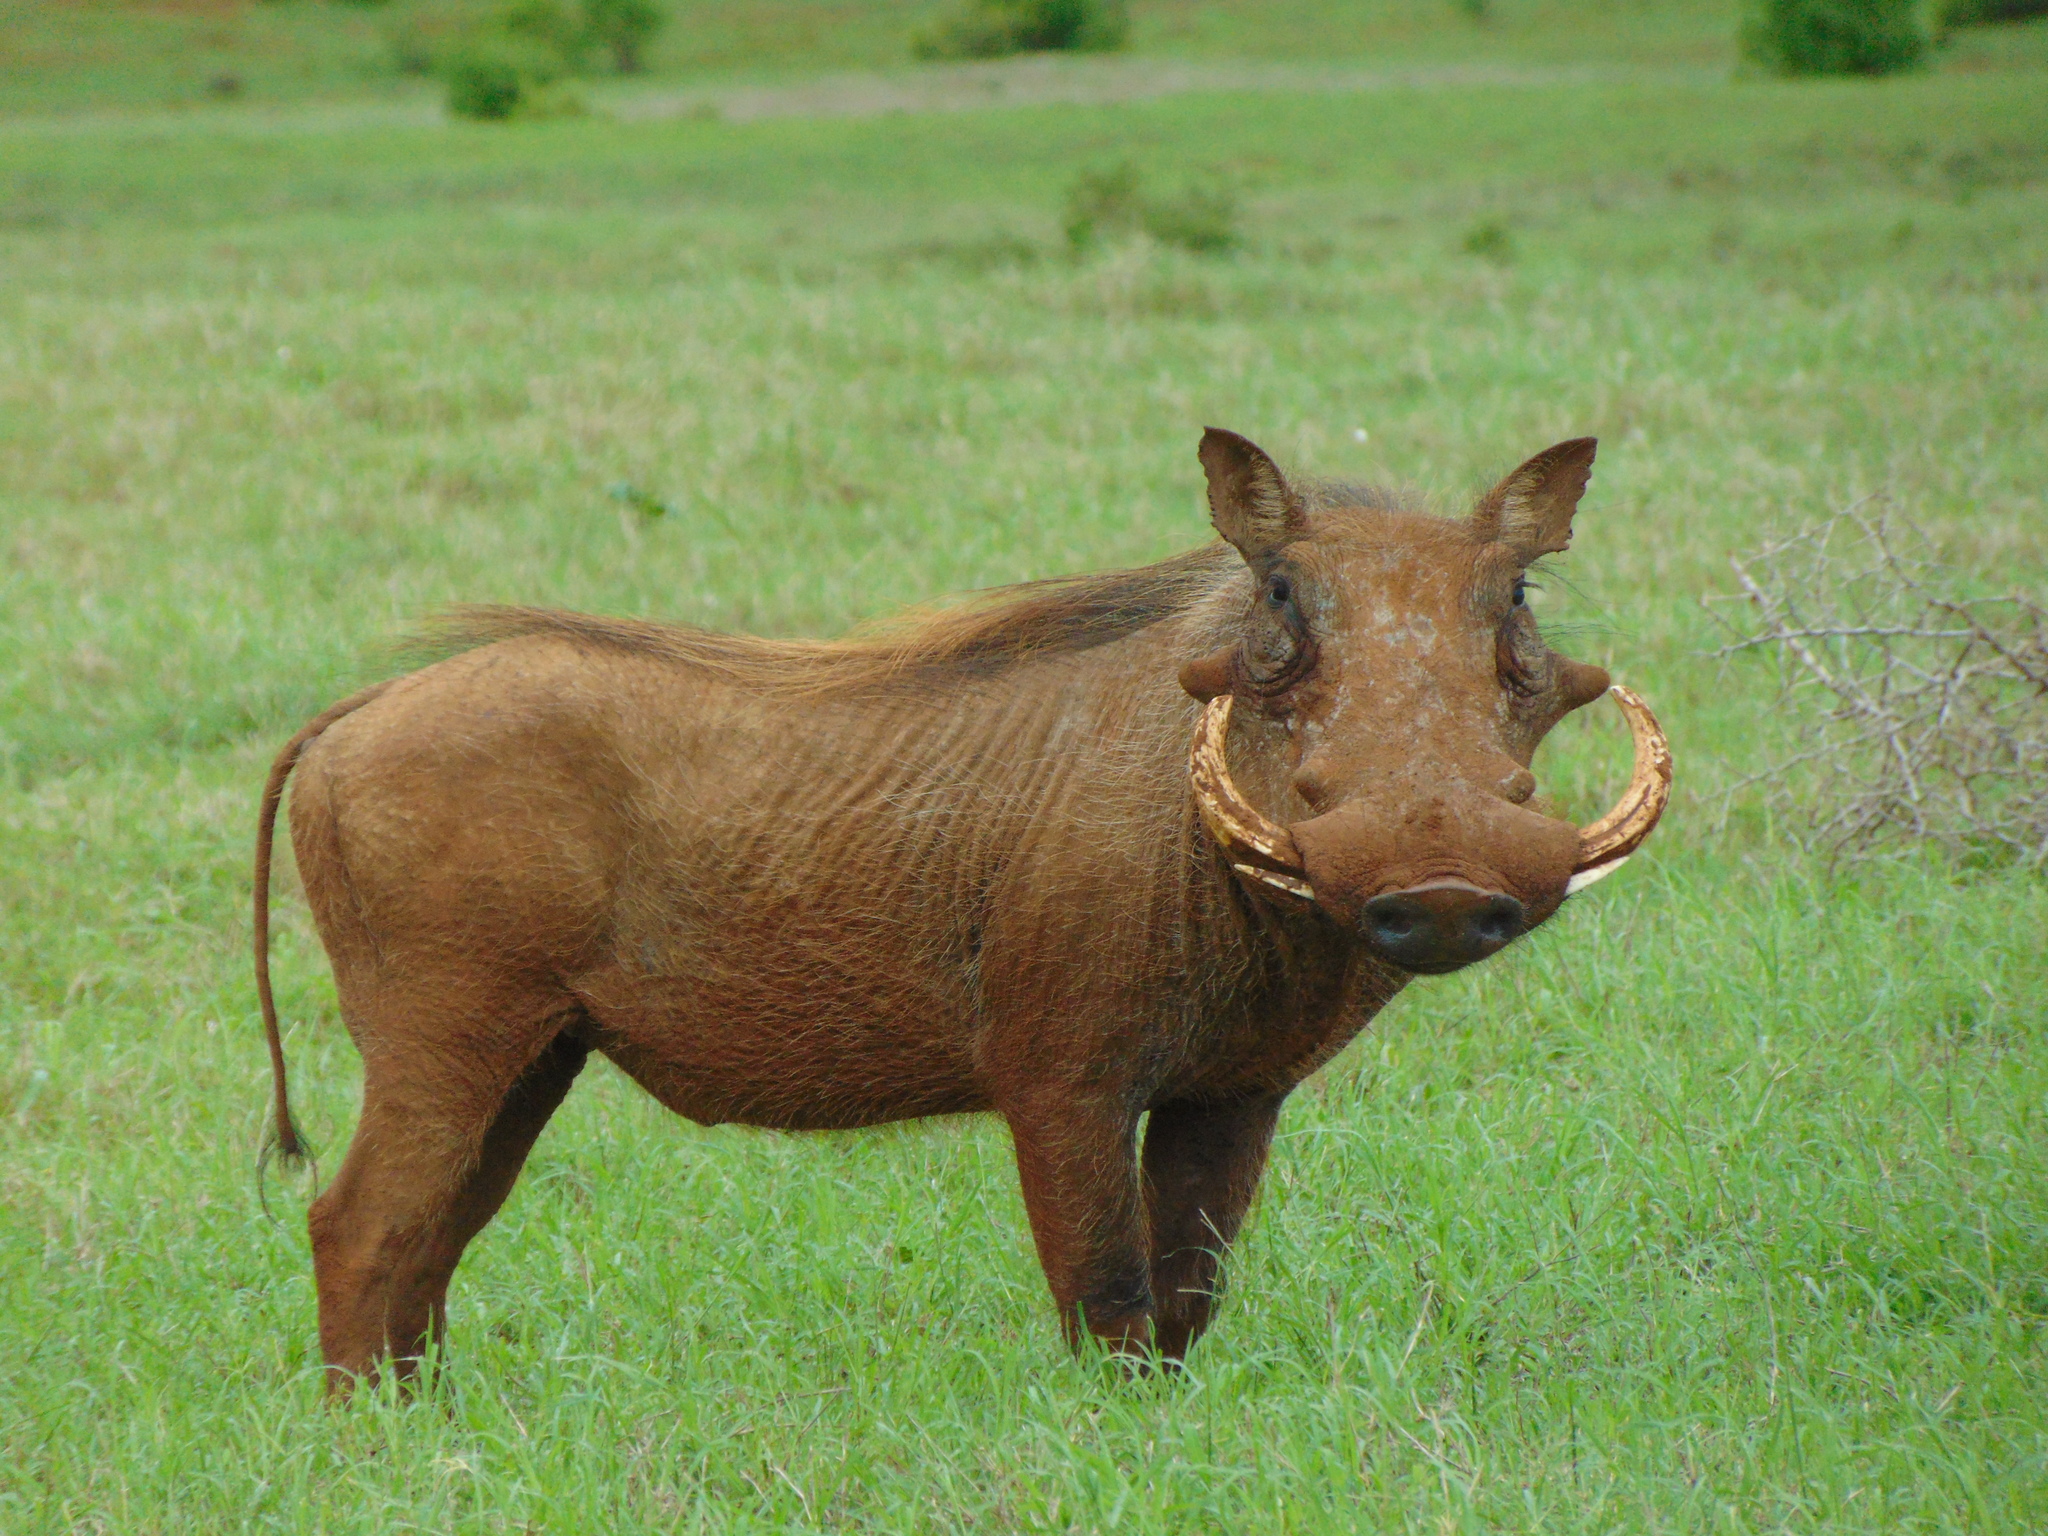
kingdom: Animalia
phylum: Chordata
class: Mammalia
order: Artiodactyla
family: Suidae
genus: Phacochoerus
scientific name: Phacochoerus africanus
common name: Common warthog
